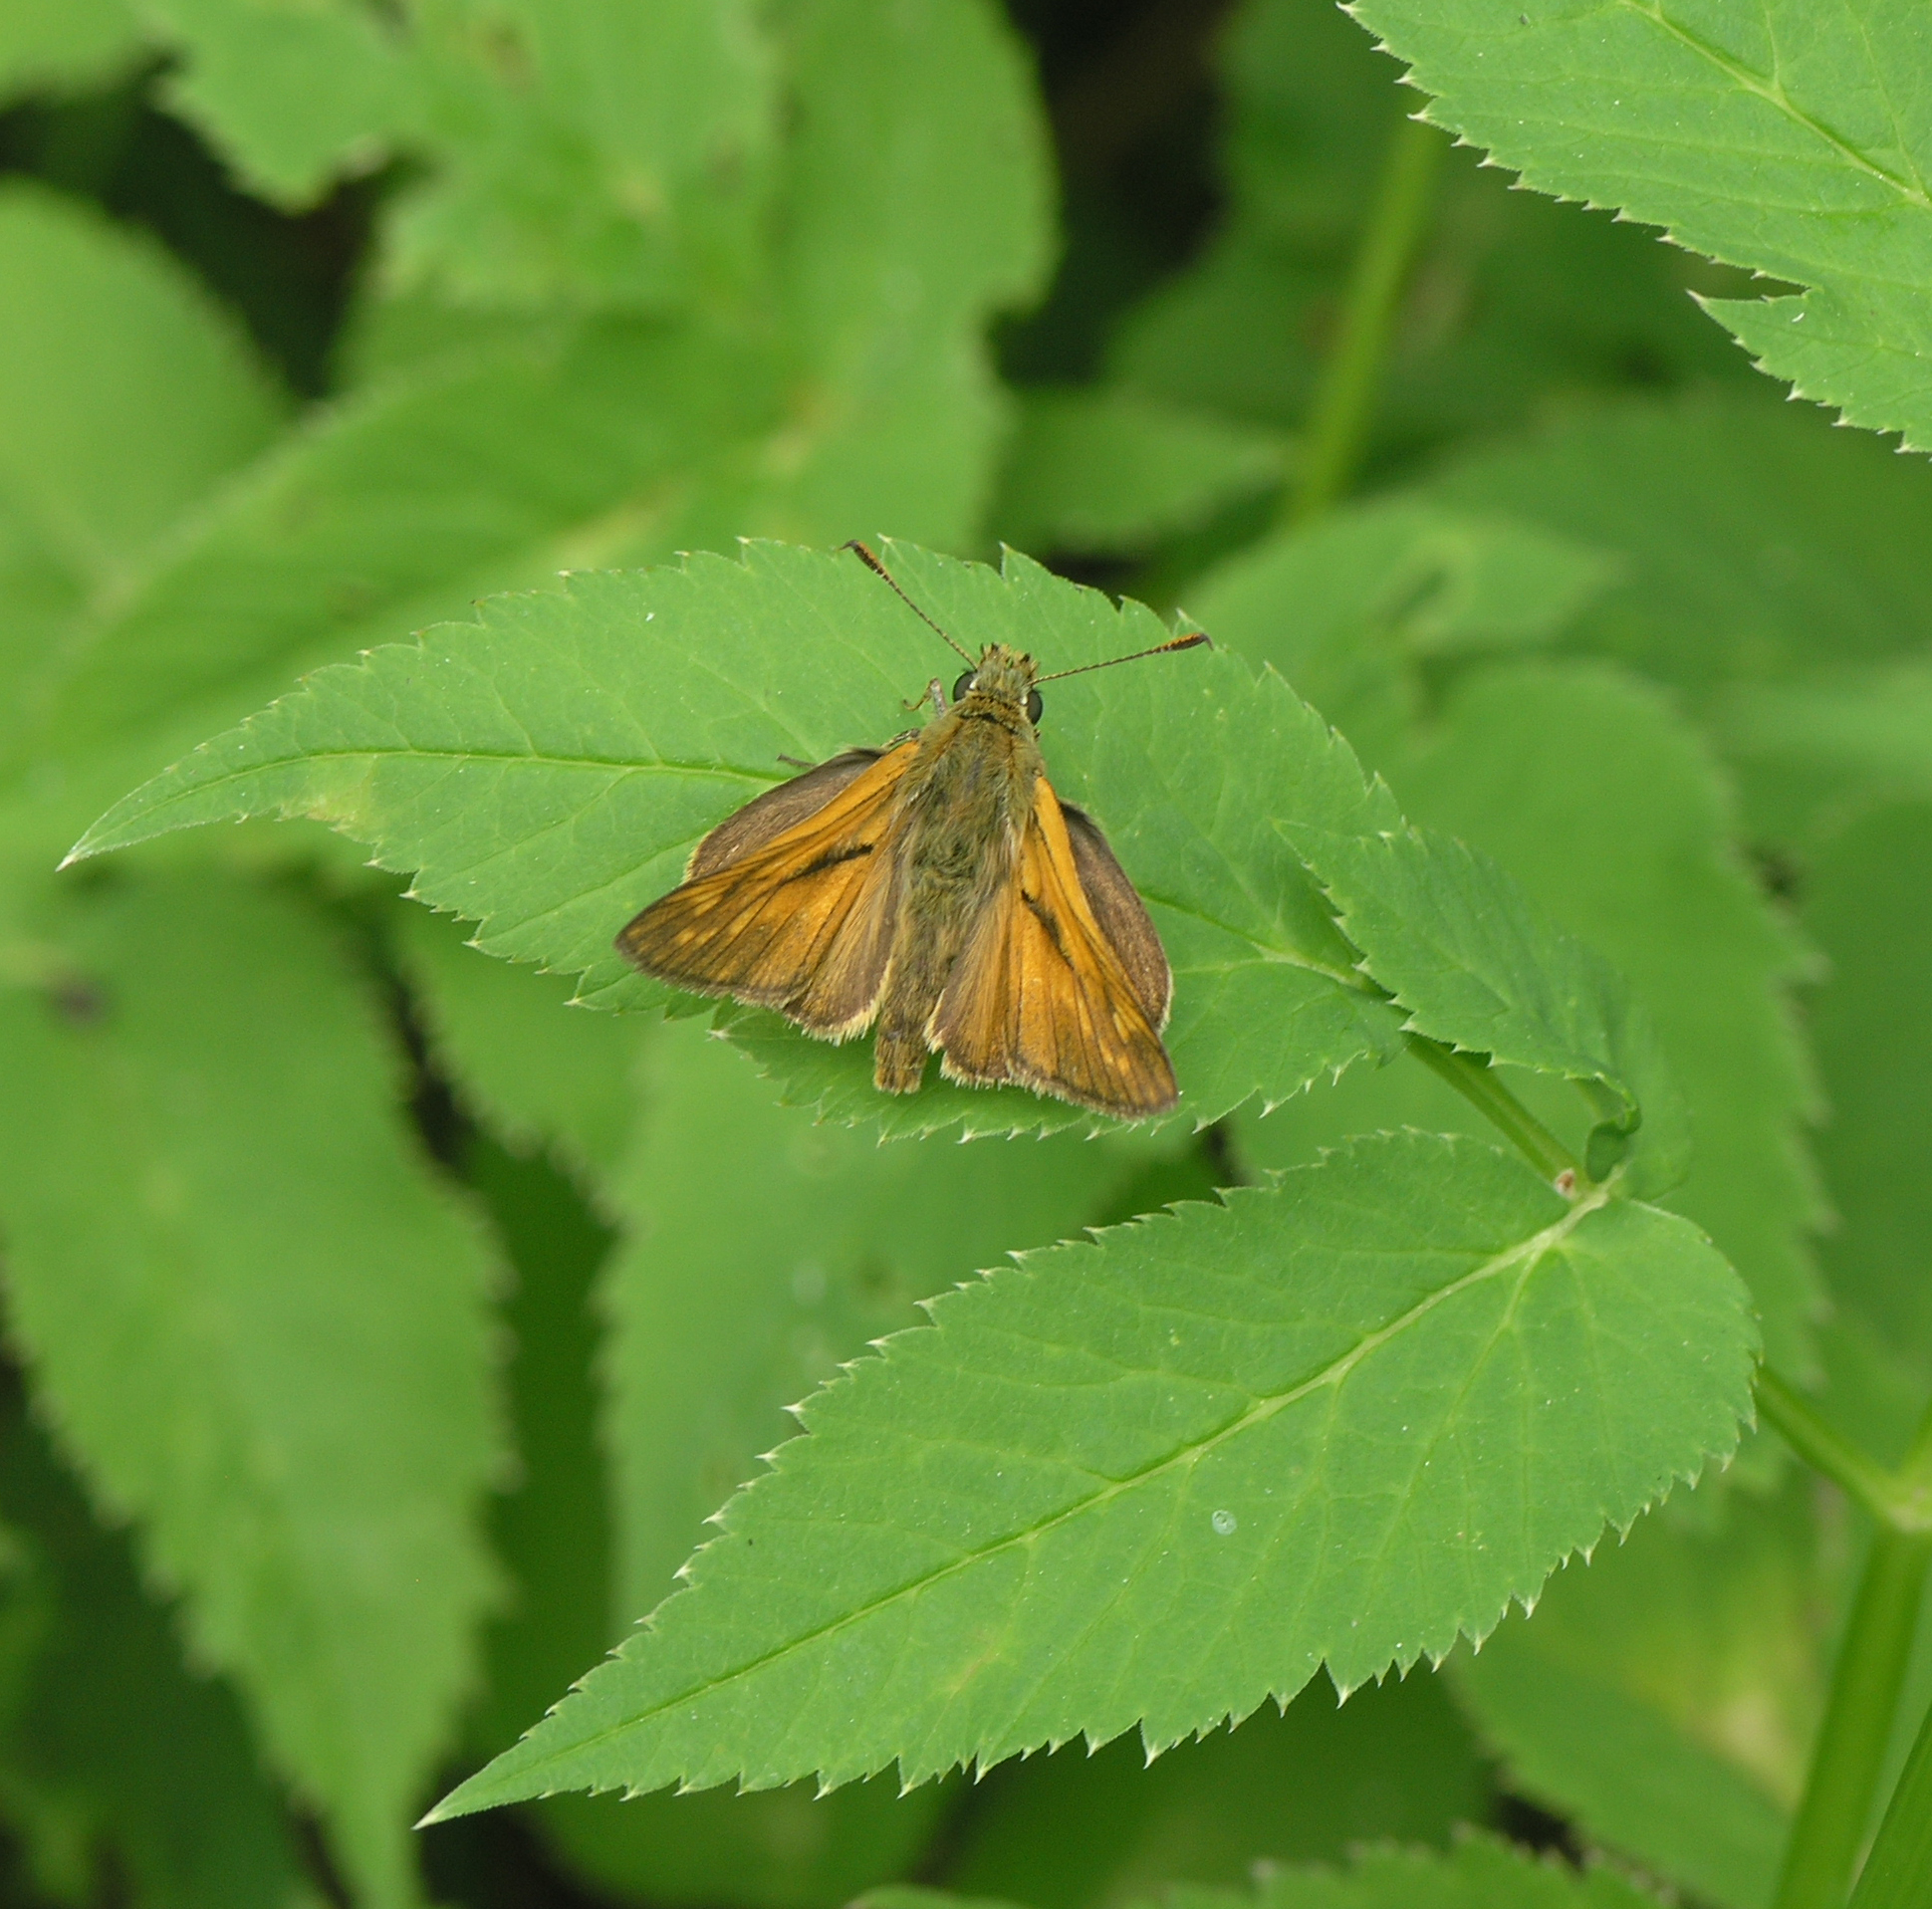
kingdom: Animalia
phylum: Arthropoda
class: Insecta
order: Lepidoptera
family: Hesperiidae
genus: Ochlodes
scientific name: Ochlodes venata
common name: Large skipper
